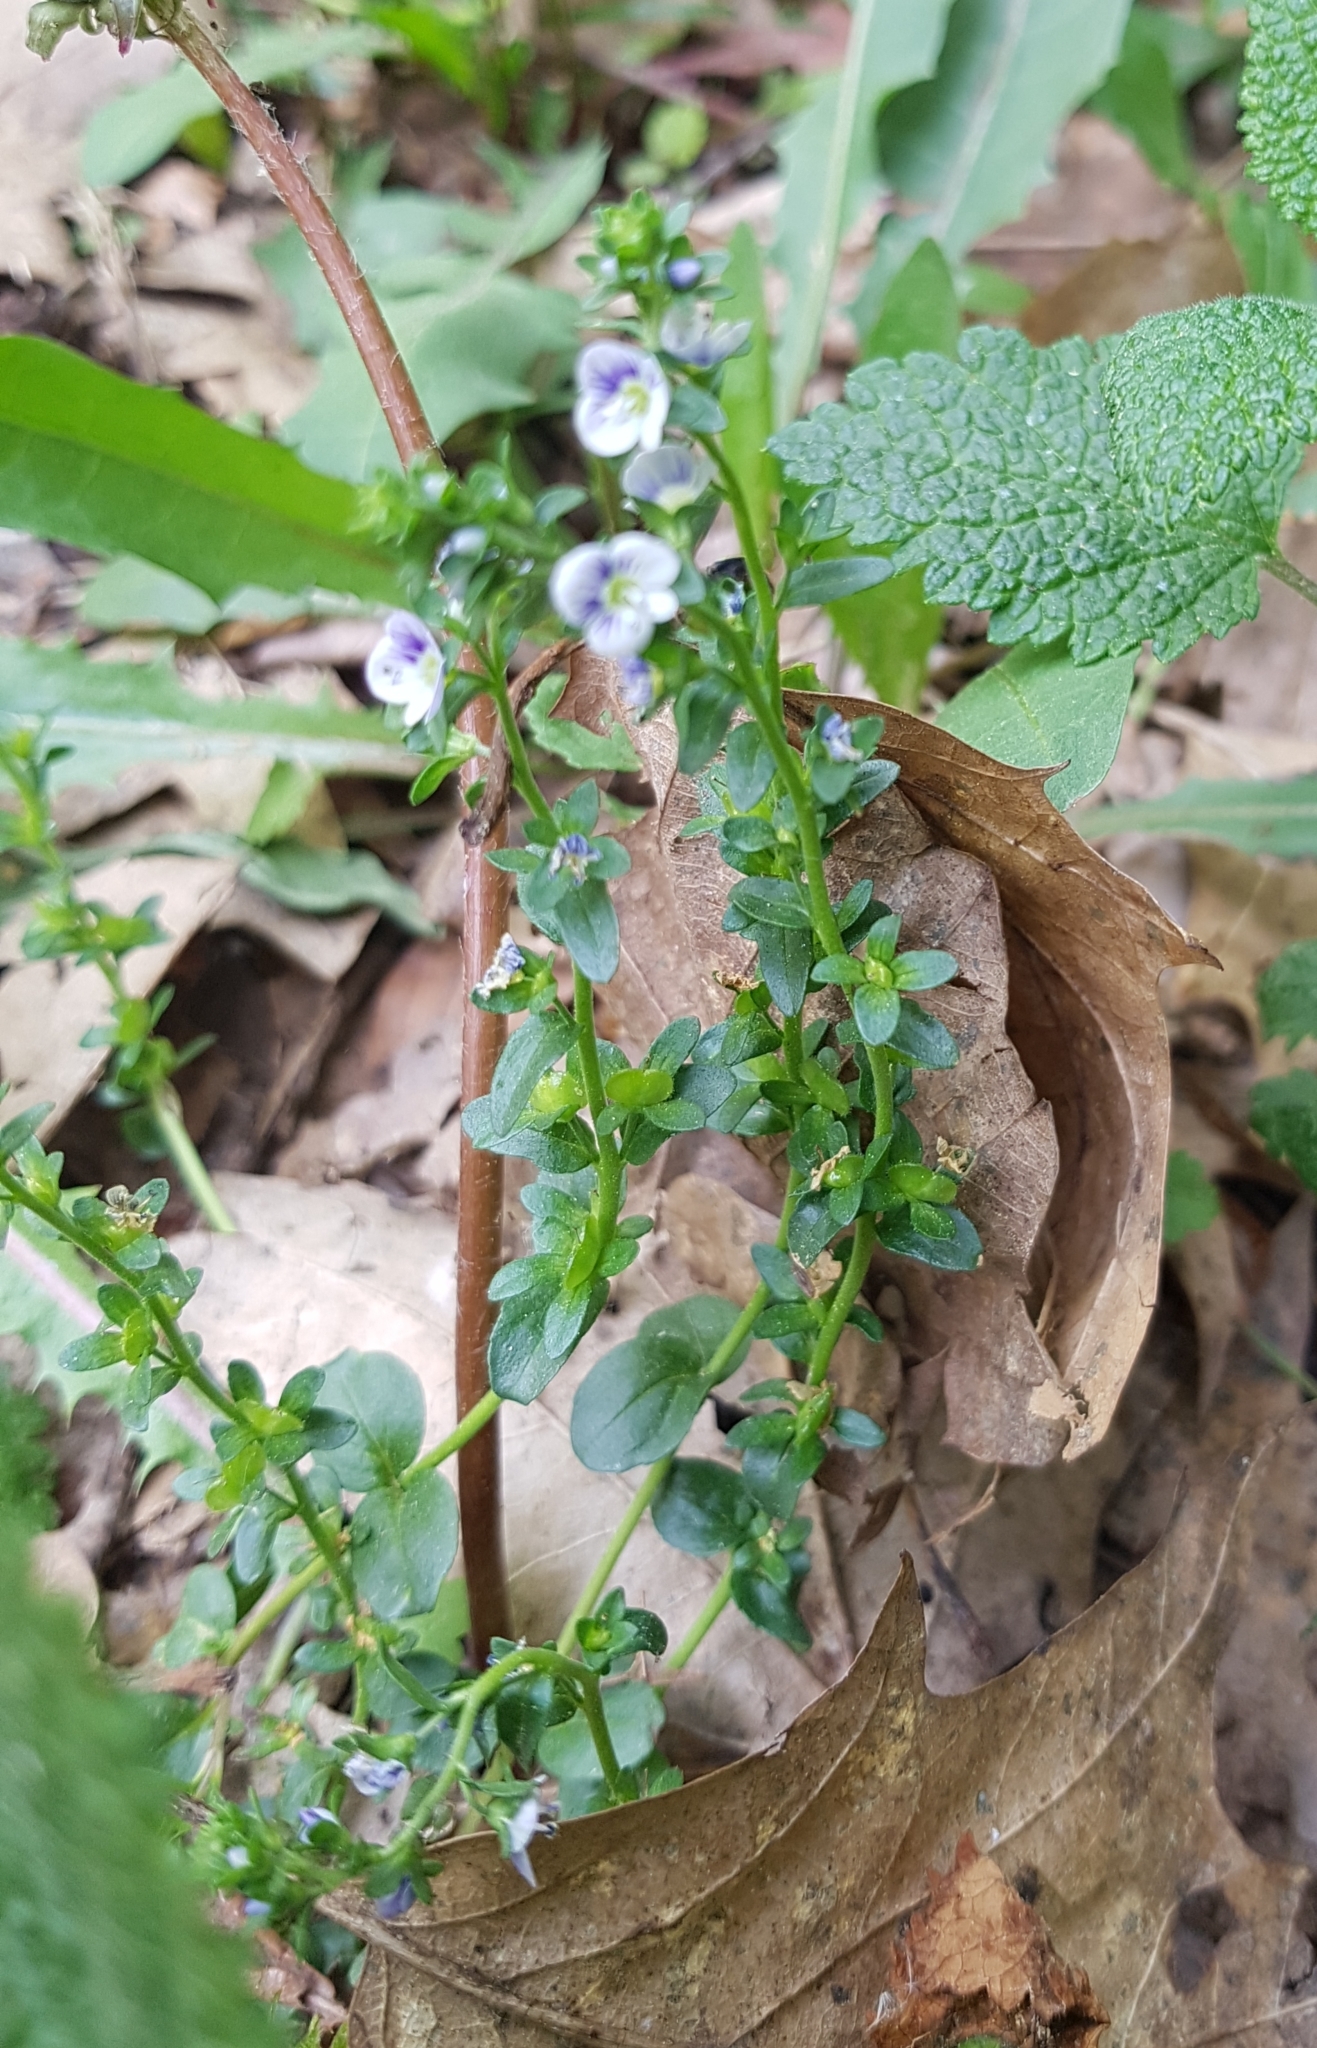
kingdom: Plantae
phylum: Tracheophyta
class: Magnoliopsida
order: Lamiales
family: Plantaginaceae
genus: Veronica
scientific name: Veronica serpyllifolia
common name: Thyme-leaved speedwell
